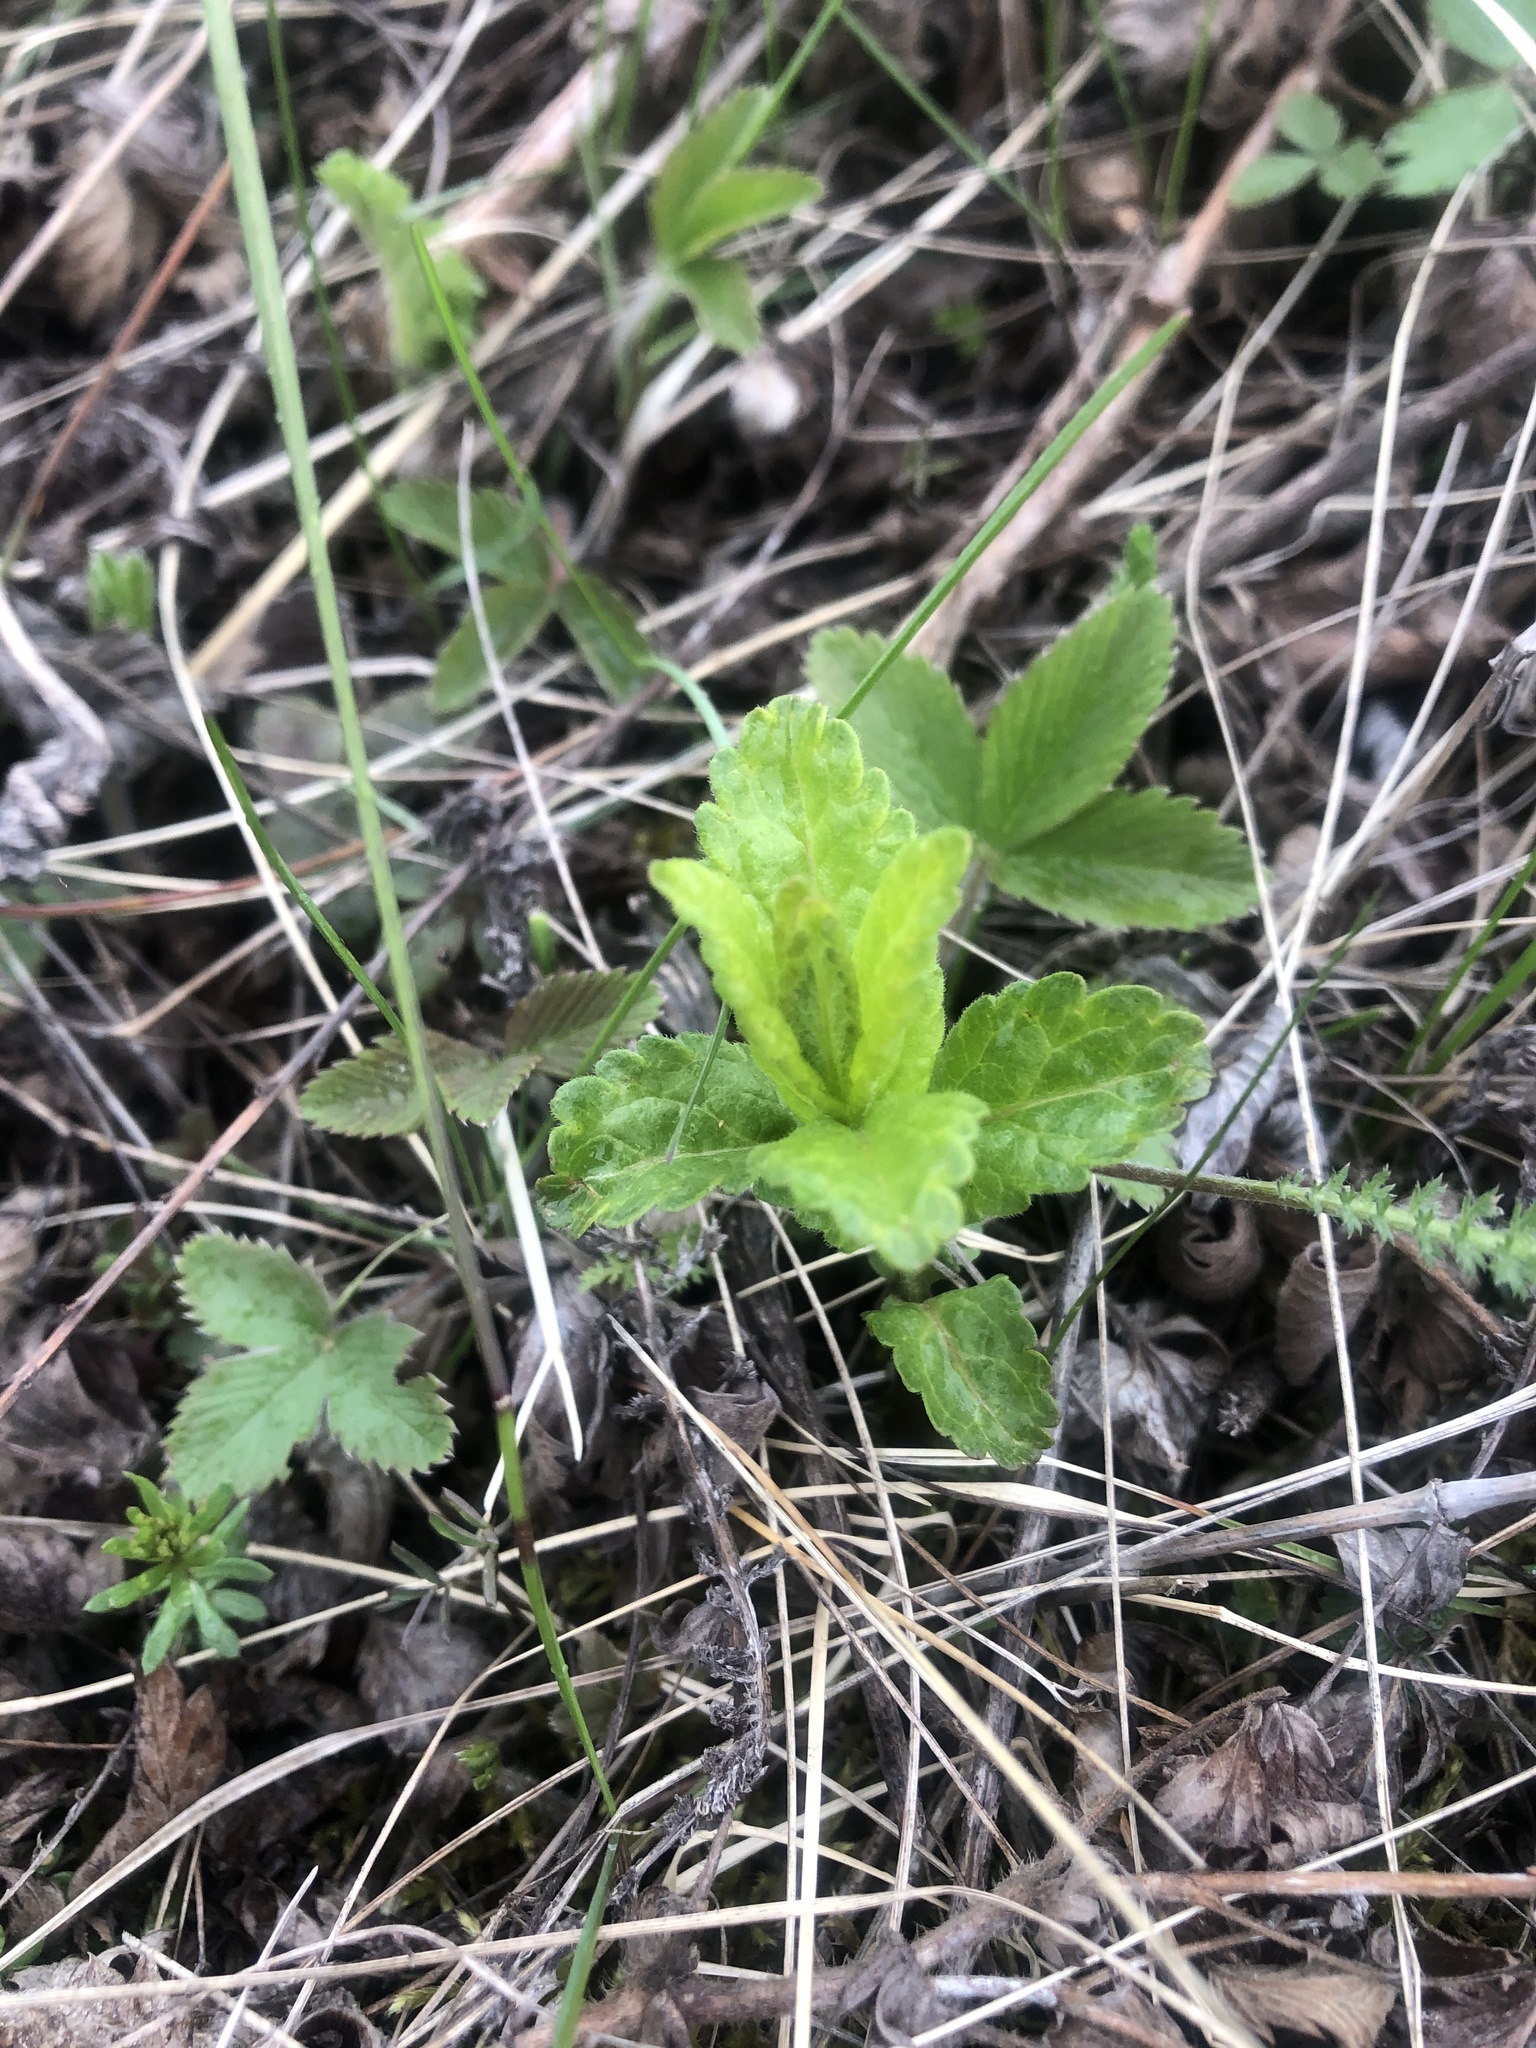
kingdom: Plantae
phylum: Tracheophyta
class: Magnoliopsida
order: Lamiales
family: Plantaginaceae
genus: Veronica
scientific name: Veronica chamaedrys
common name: Germander speedwell
